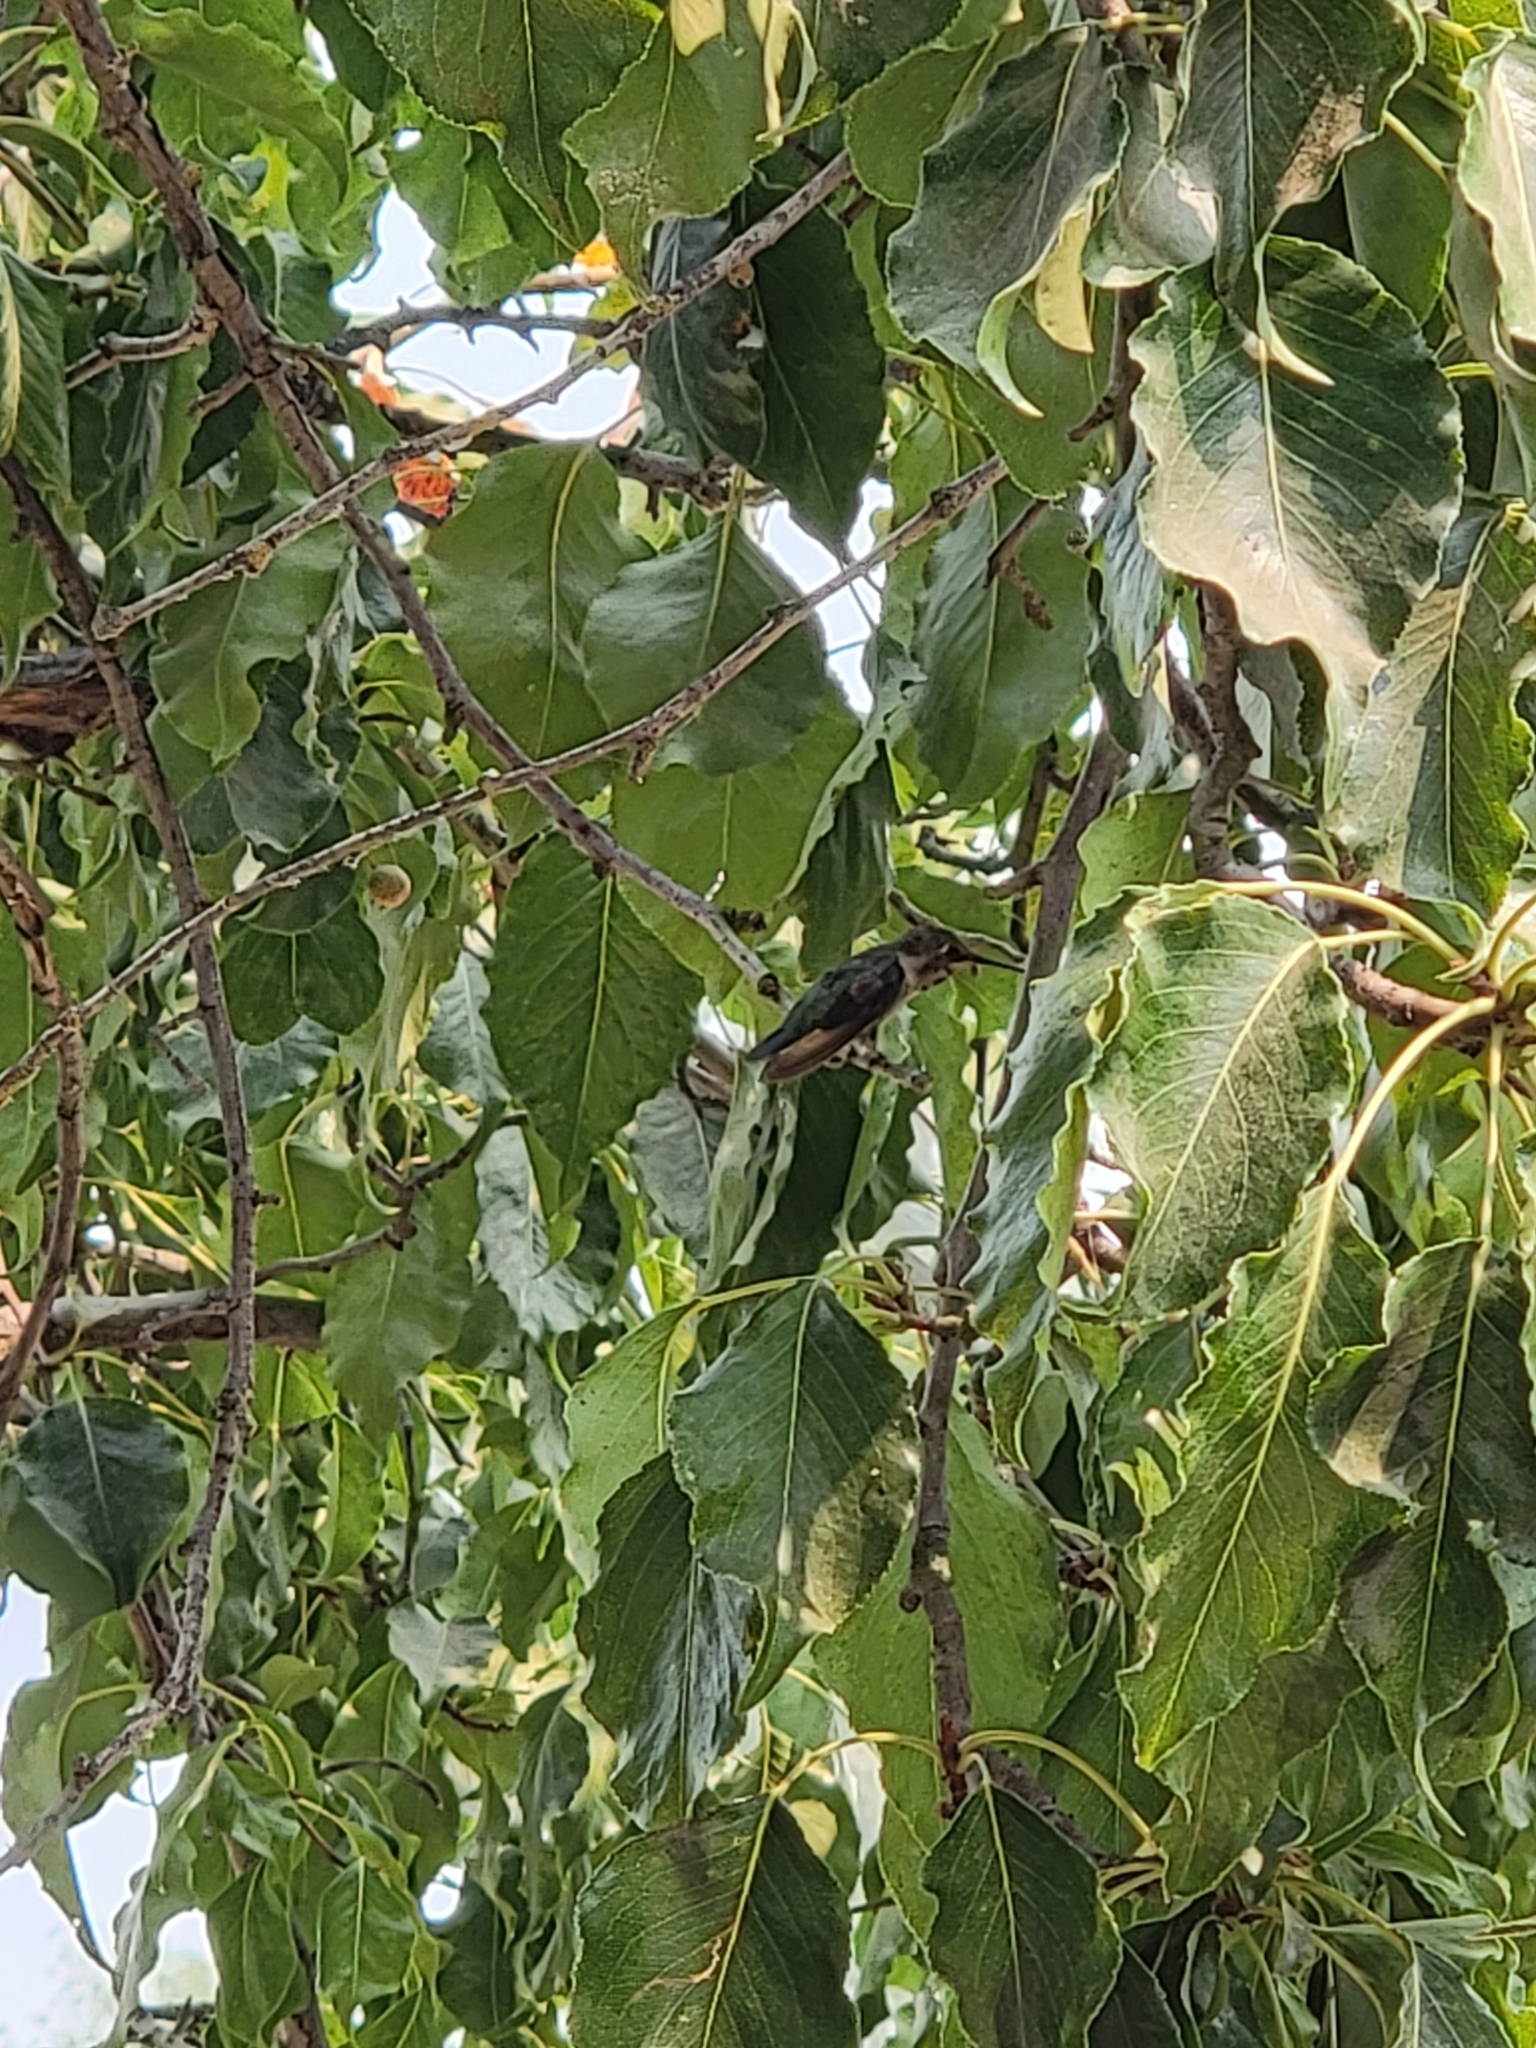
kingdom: Animalia
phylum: Chordata
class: Aves
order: Apodiformes
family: Trochilidae
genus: Calypte
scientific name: Calypte anna
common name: Anna's hummingbird
